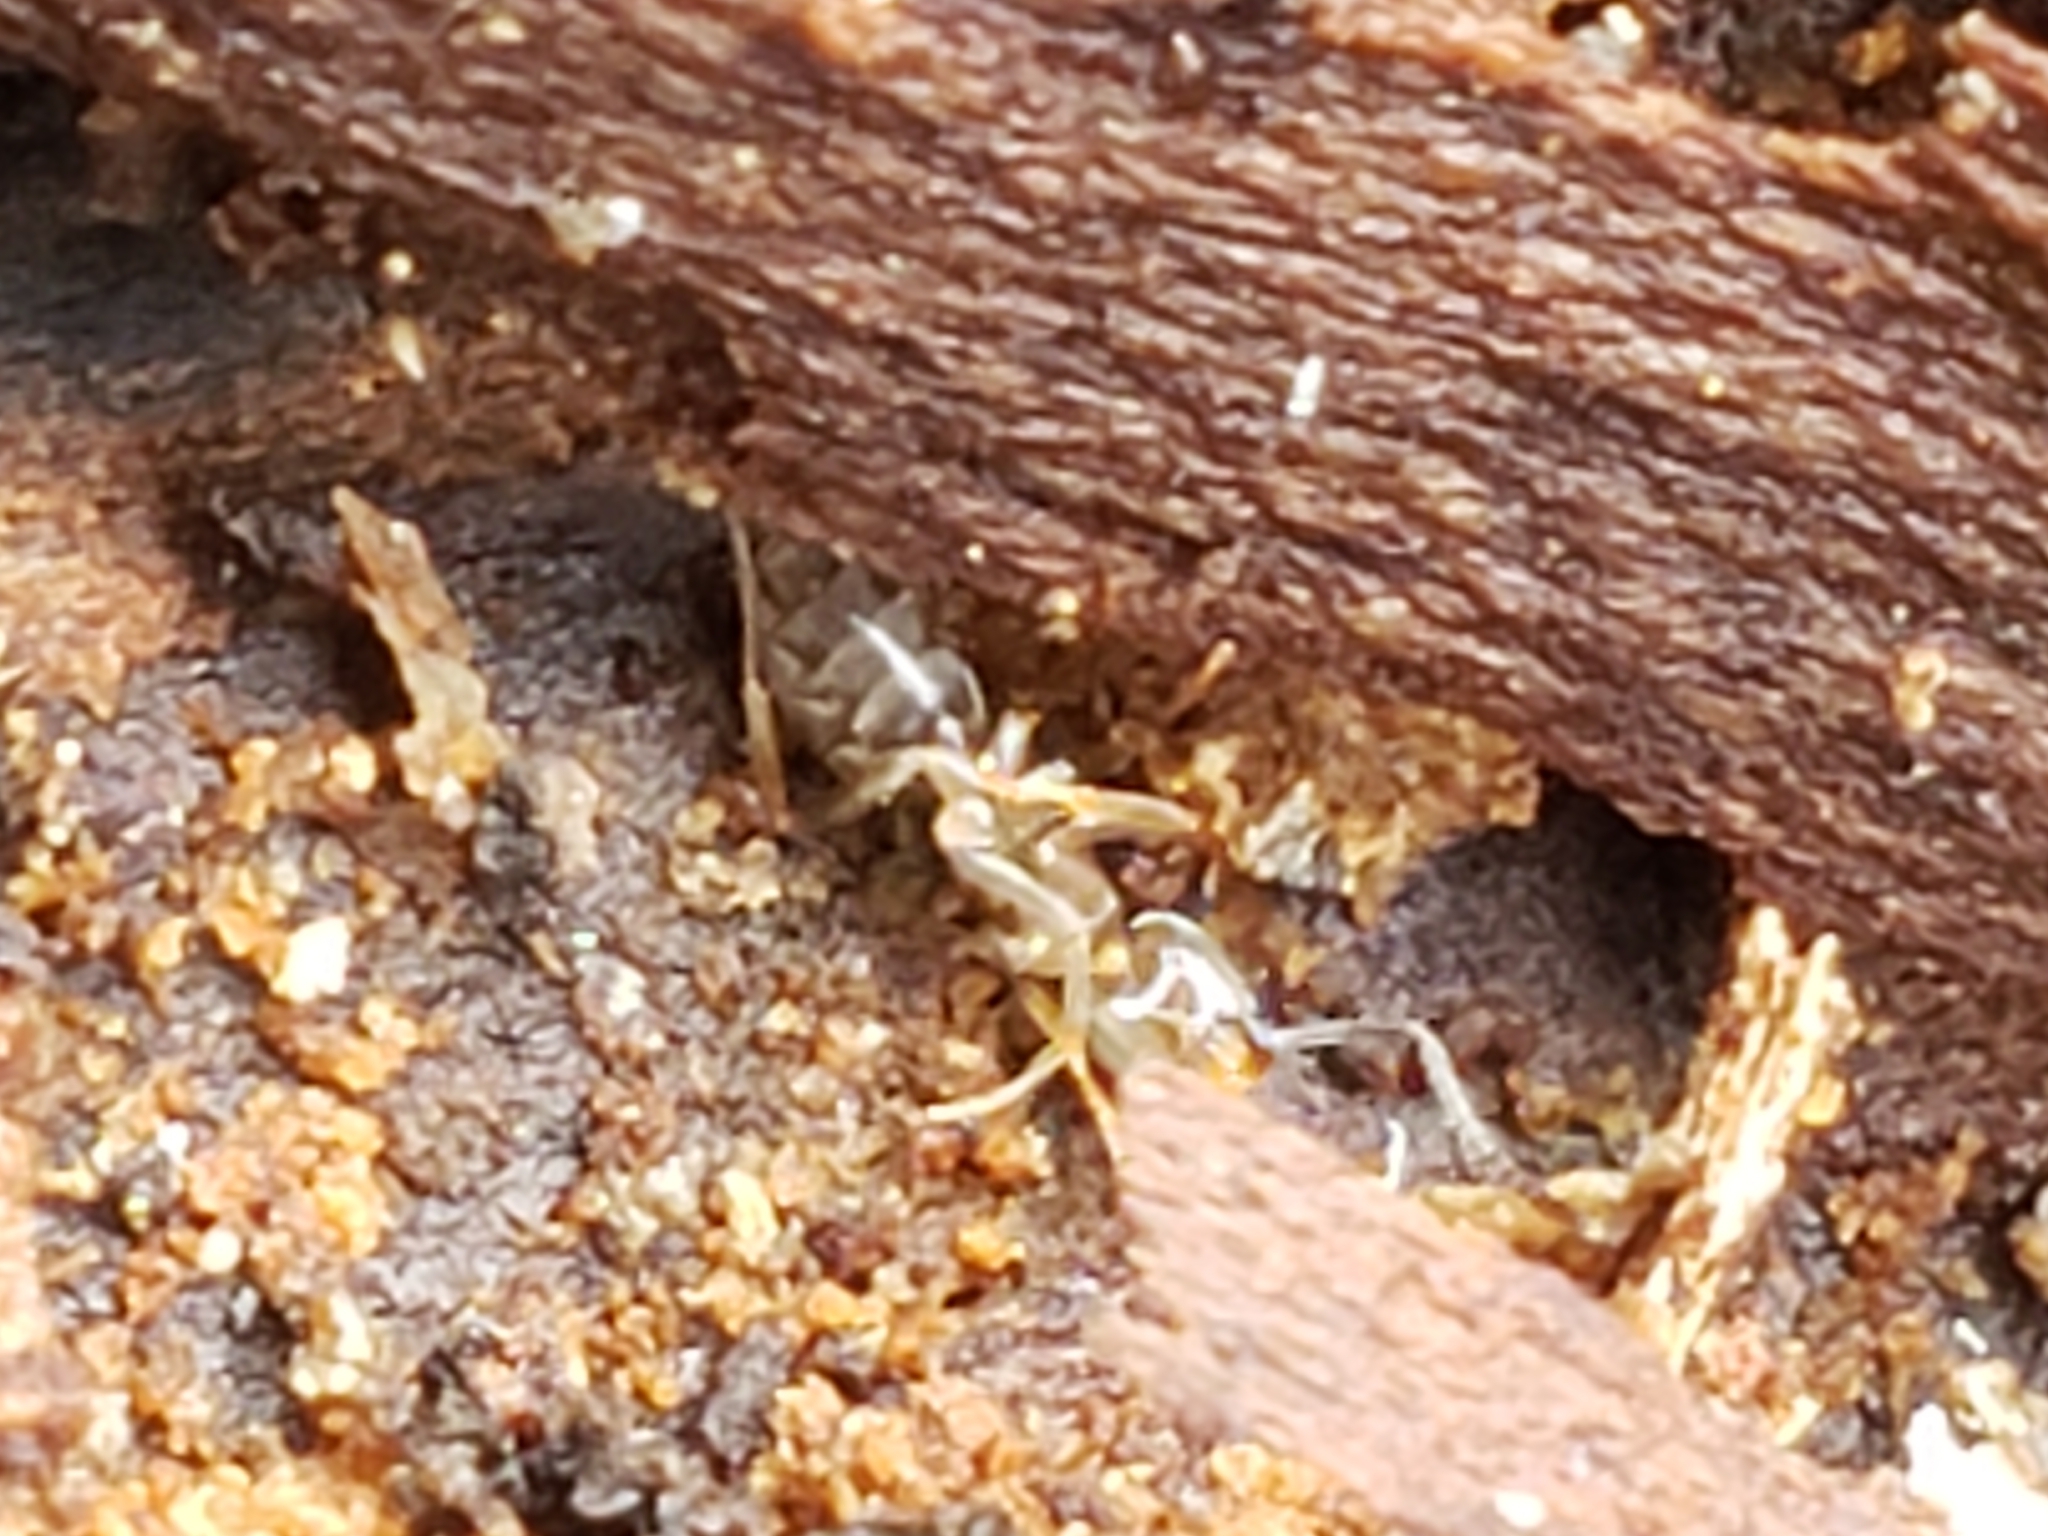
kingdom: Animalia
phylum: Arthropoda
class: Insecta
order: Hymenoptera
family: Formicidae
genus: Tapinoma
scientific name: Tapinoma sessile
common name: Odorous house ant
